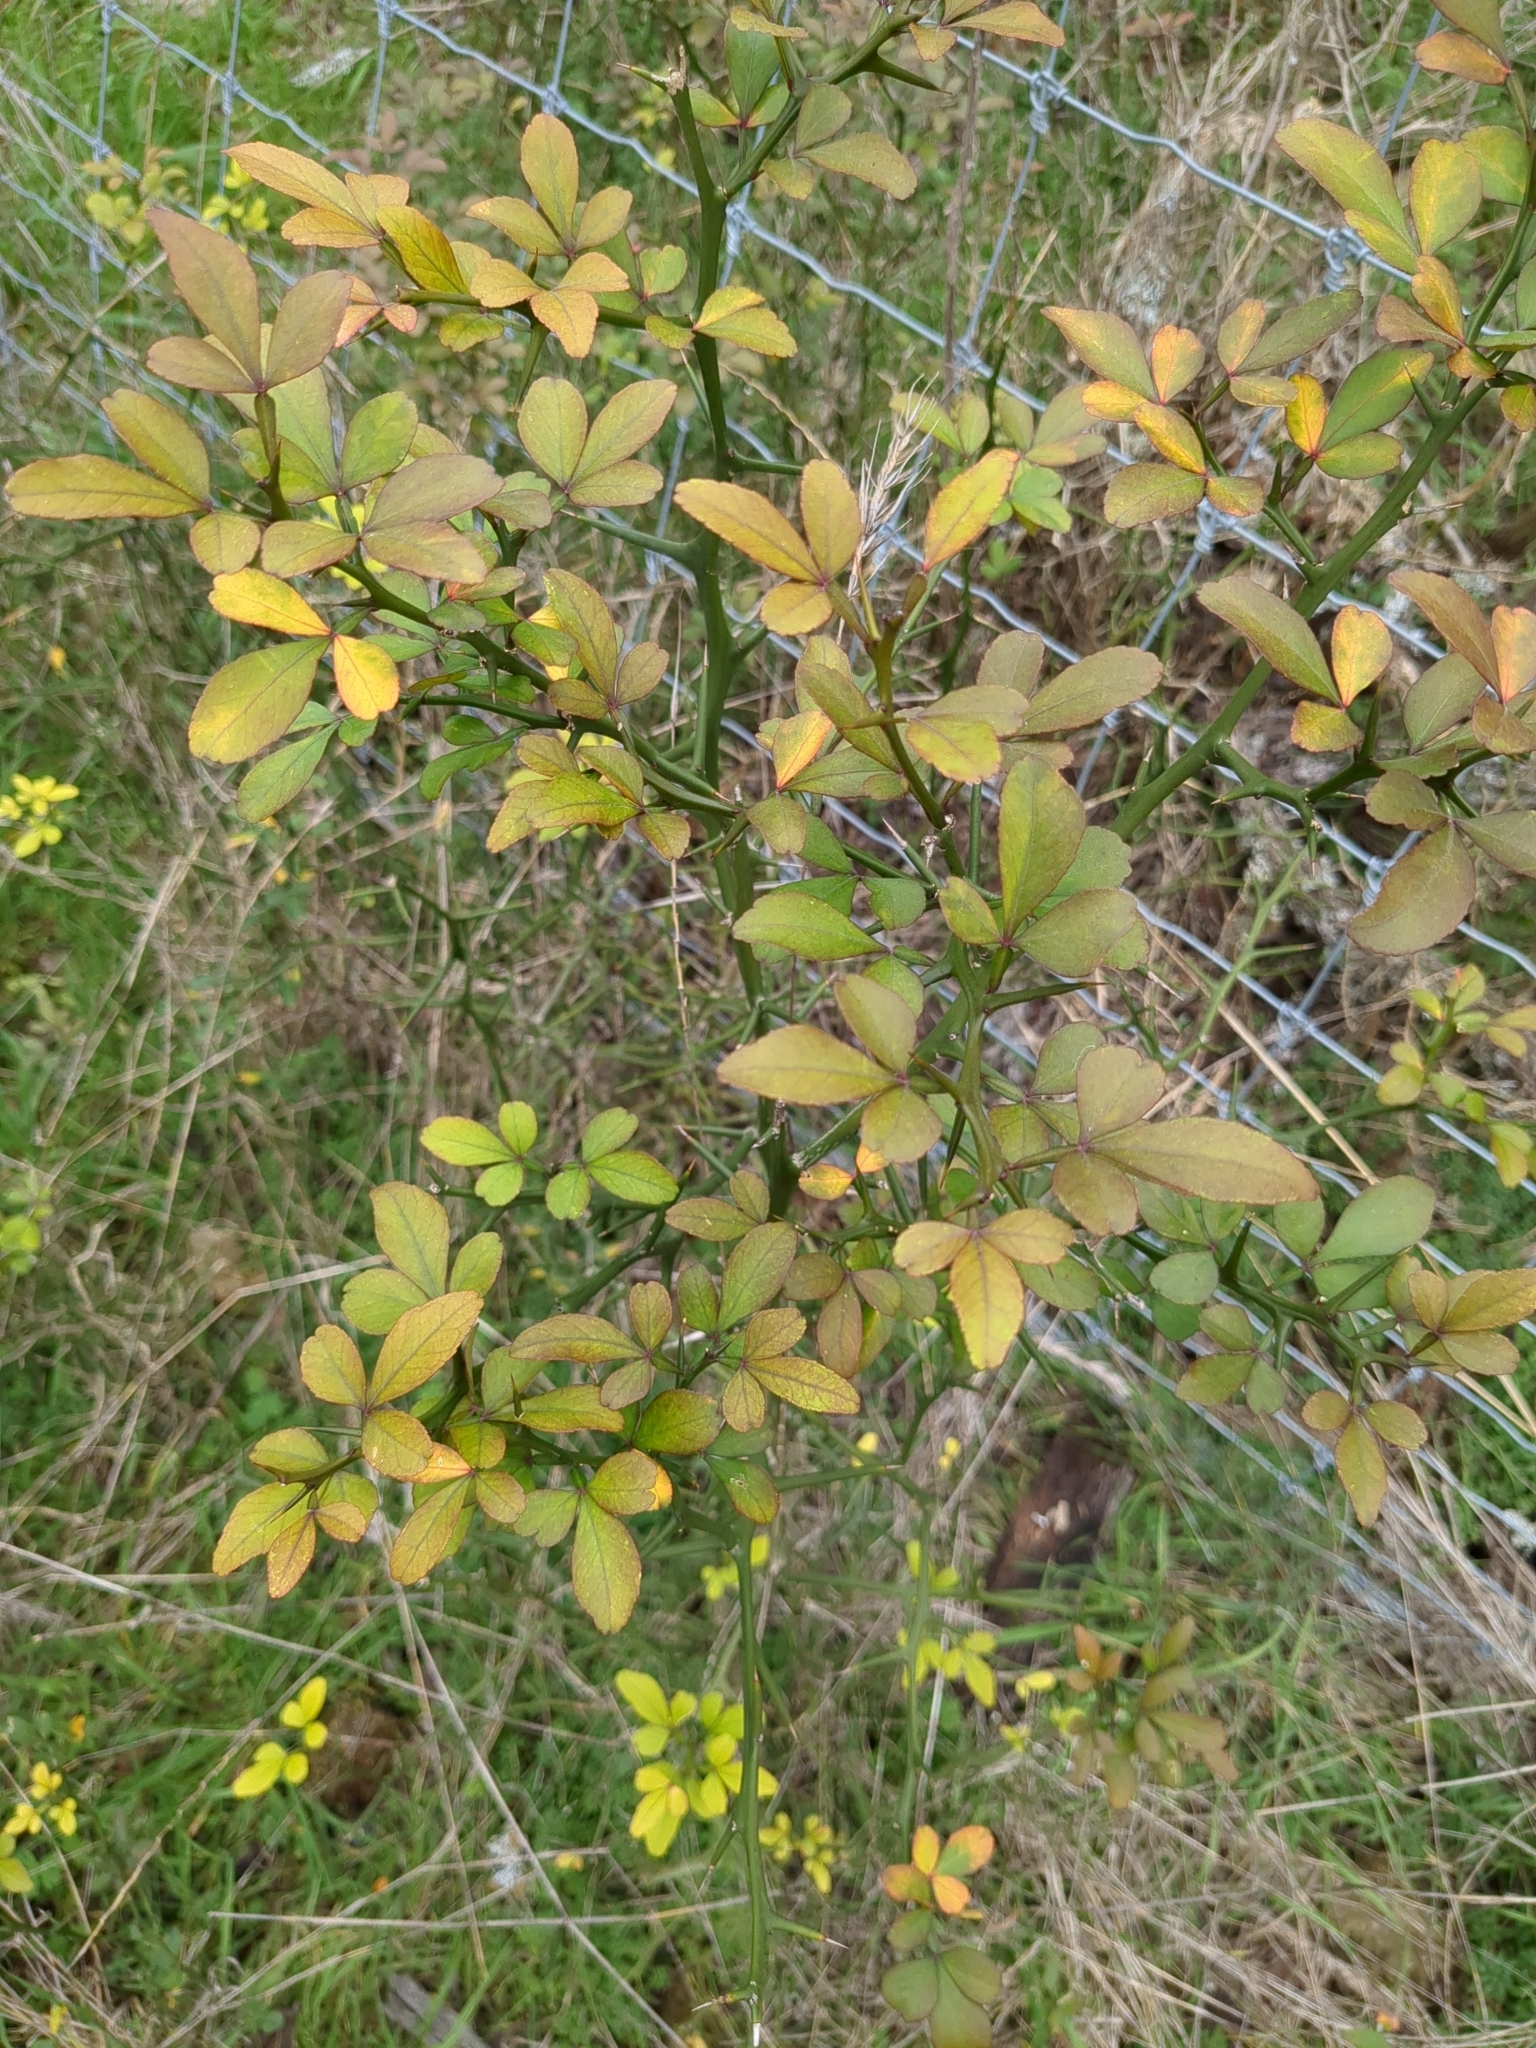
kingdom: Plantae
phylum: Tracheophyta
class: Magnoliopsida
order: Sapindales
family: Rutaceae
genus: Citrus
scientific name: Citrus trifoliata
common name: Japanese bitter-orange
